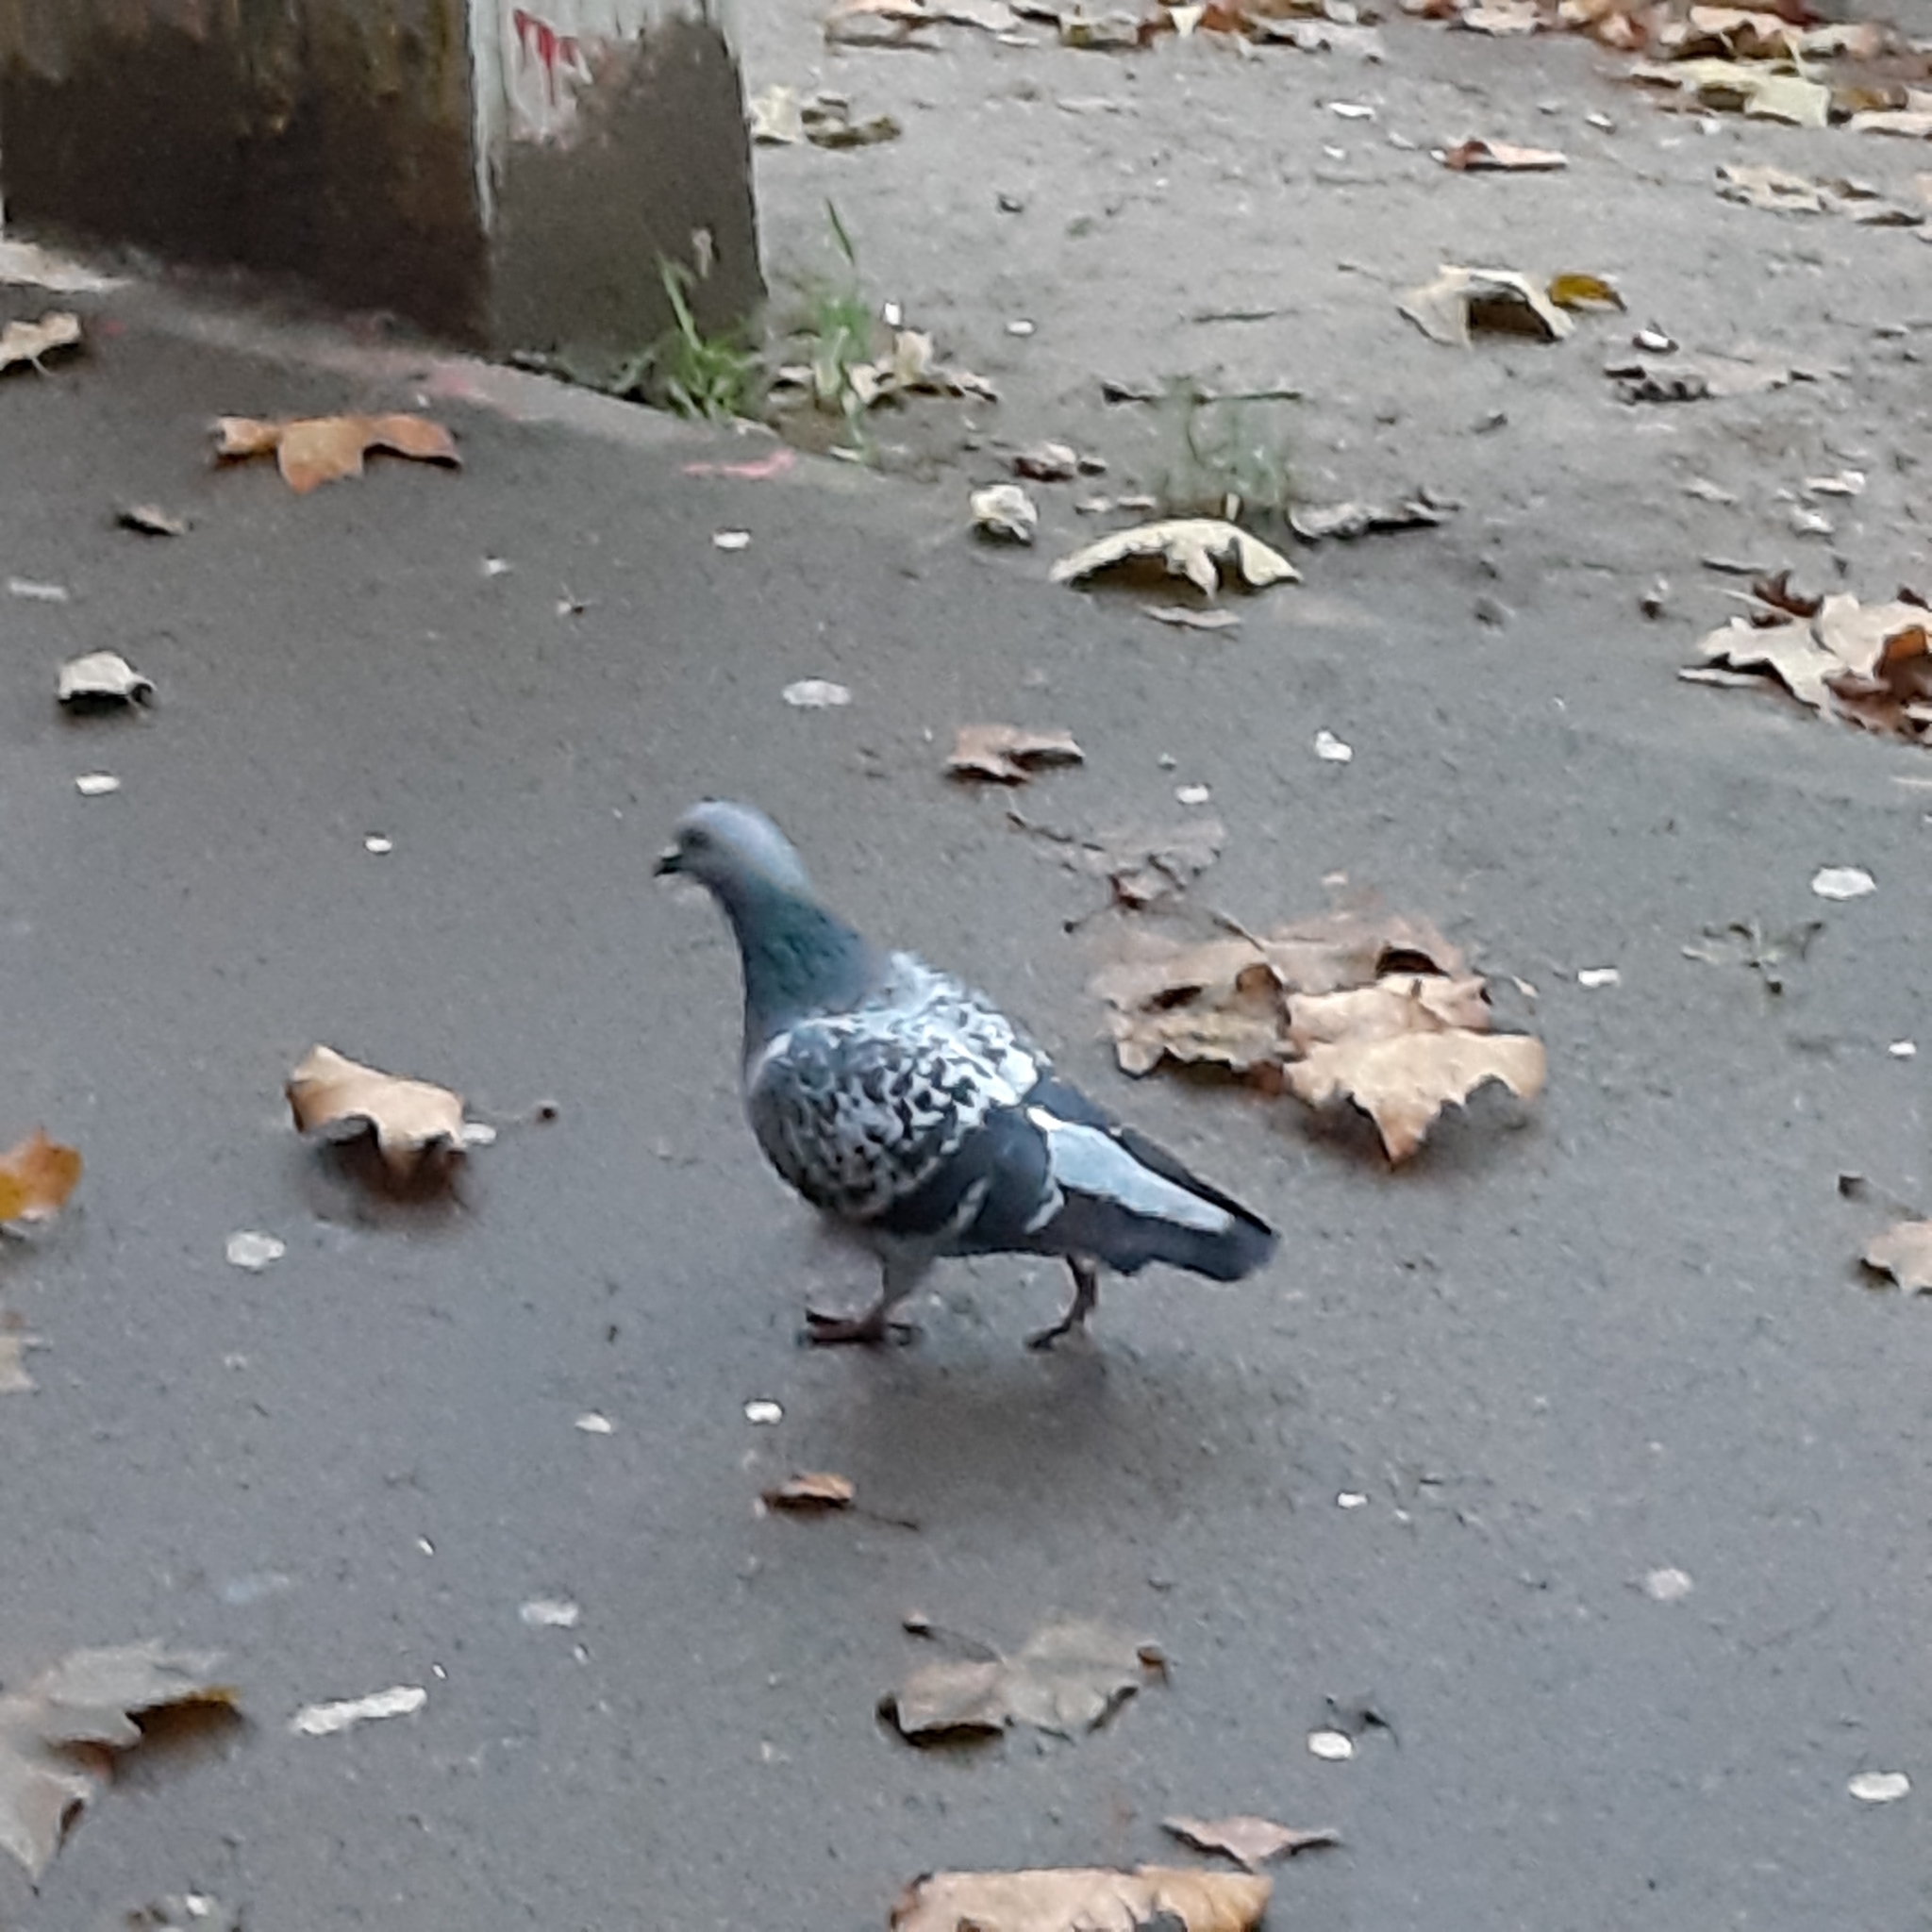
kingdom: Animalia
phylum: Chordata
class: Aves
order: Columbiformes
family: Columbidae
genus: Columba
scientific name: Columba livia
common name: Rock pigeon
